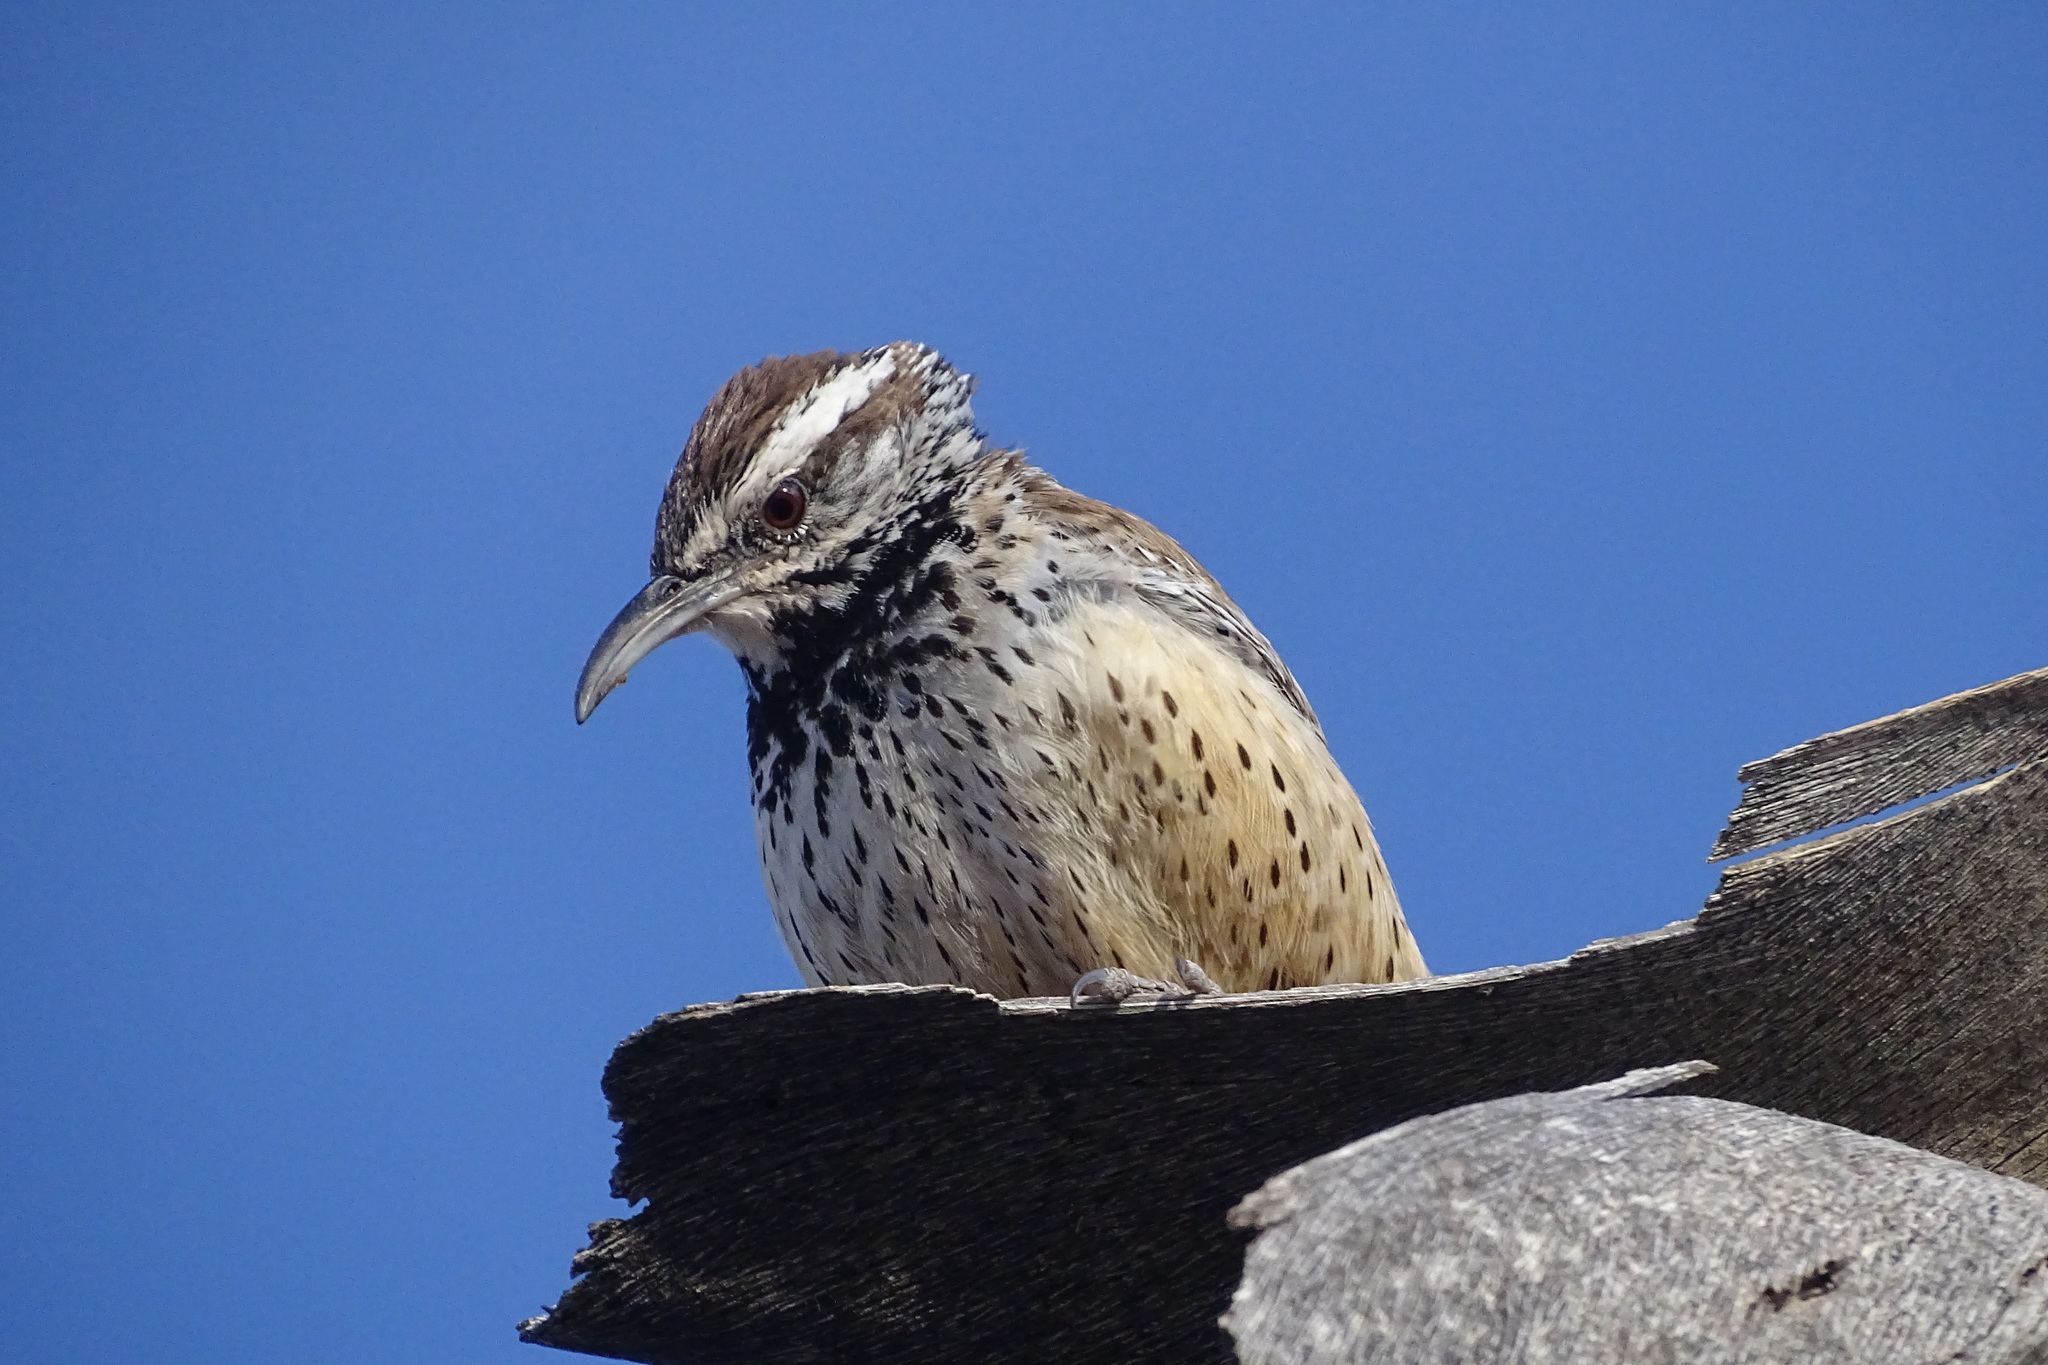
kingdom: Animalia
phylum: Chordata
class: Aves
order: Passeriformes
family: Troglodytidae
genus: Campylorhynchus
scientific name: Campylorhynchus brunneicapillus
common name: Cactus wren
